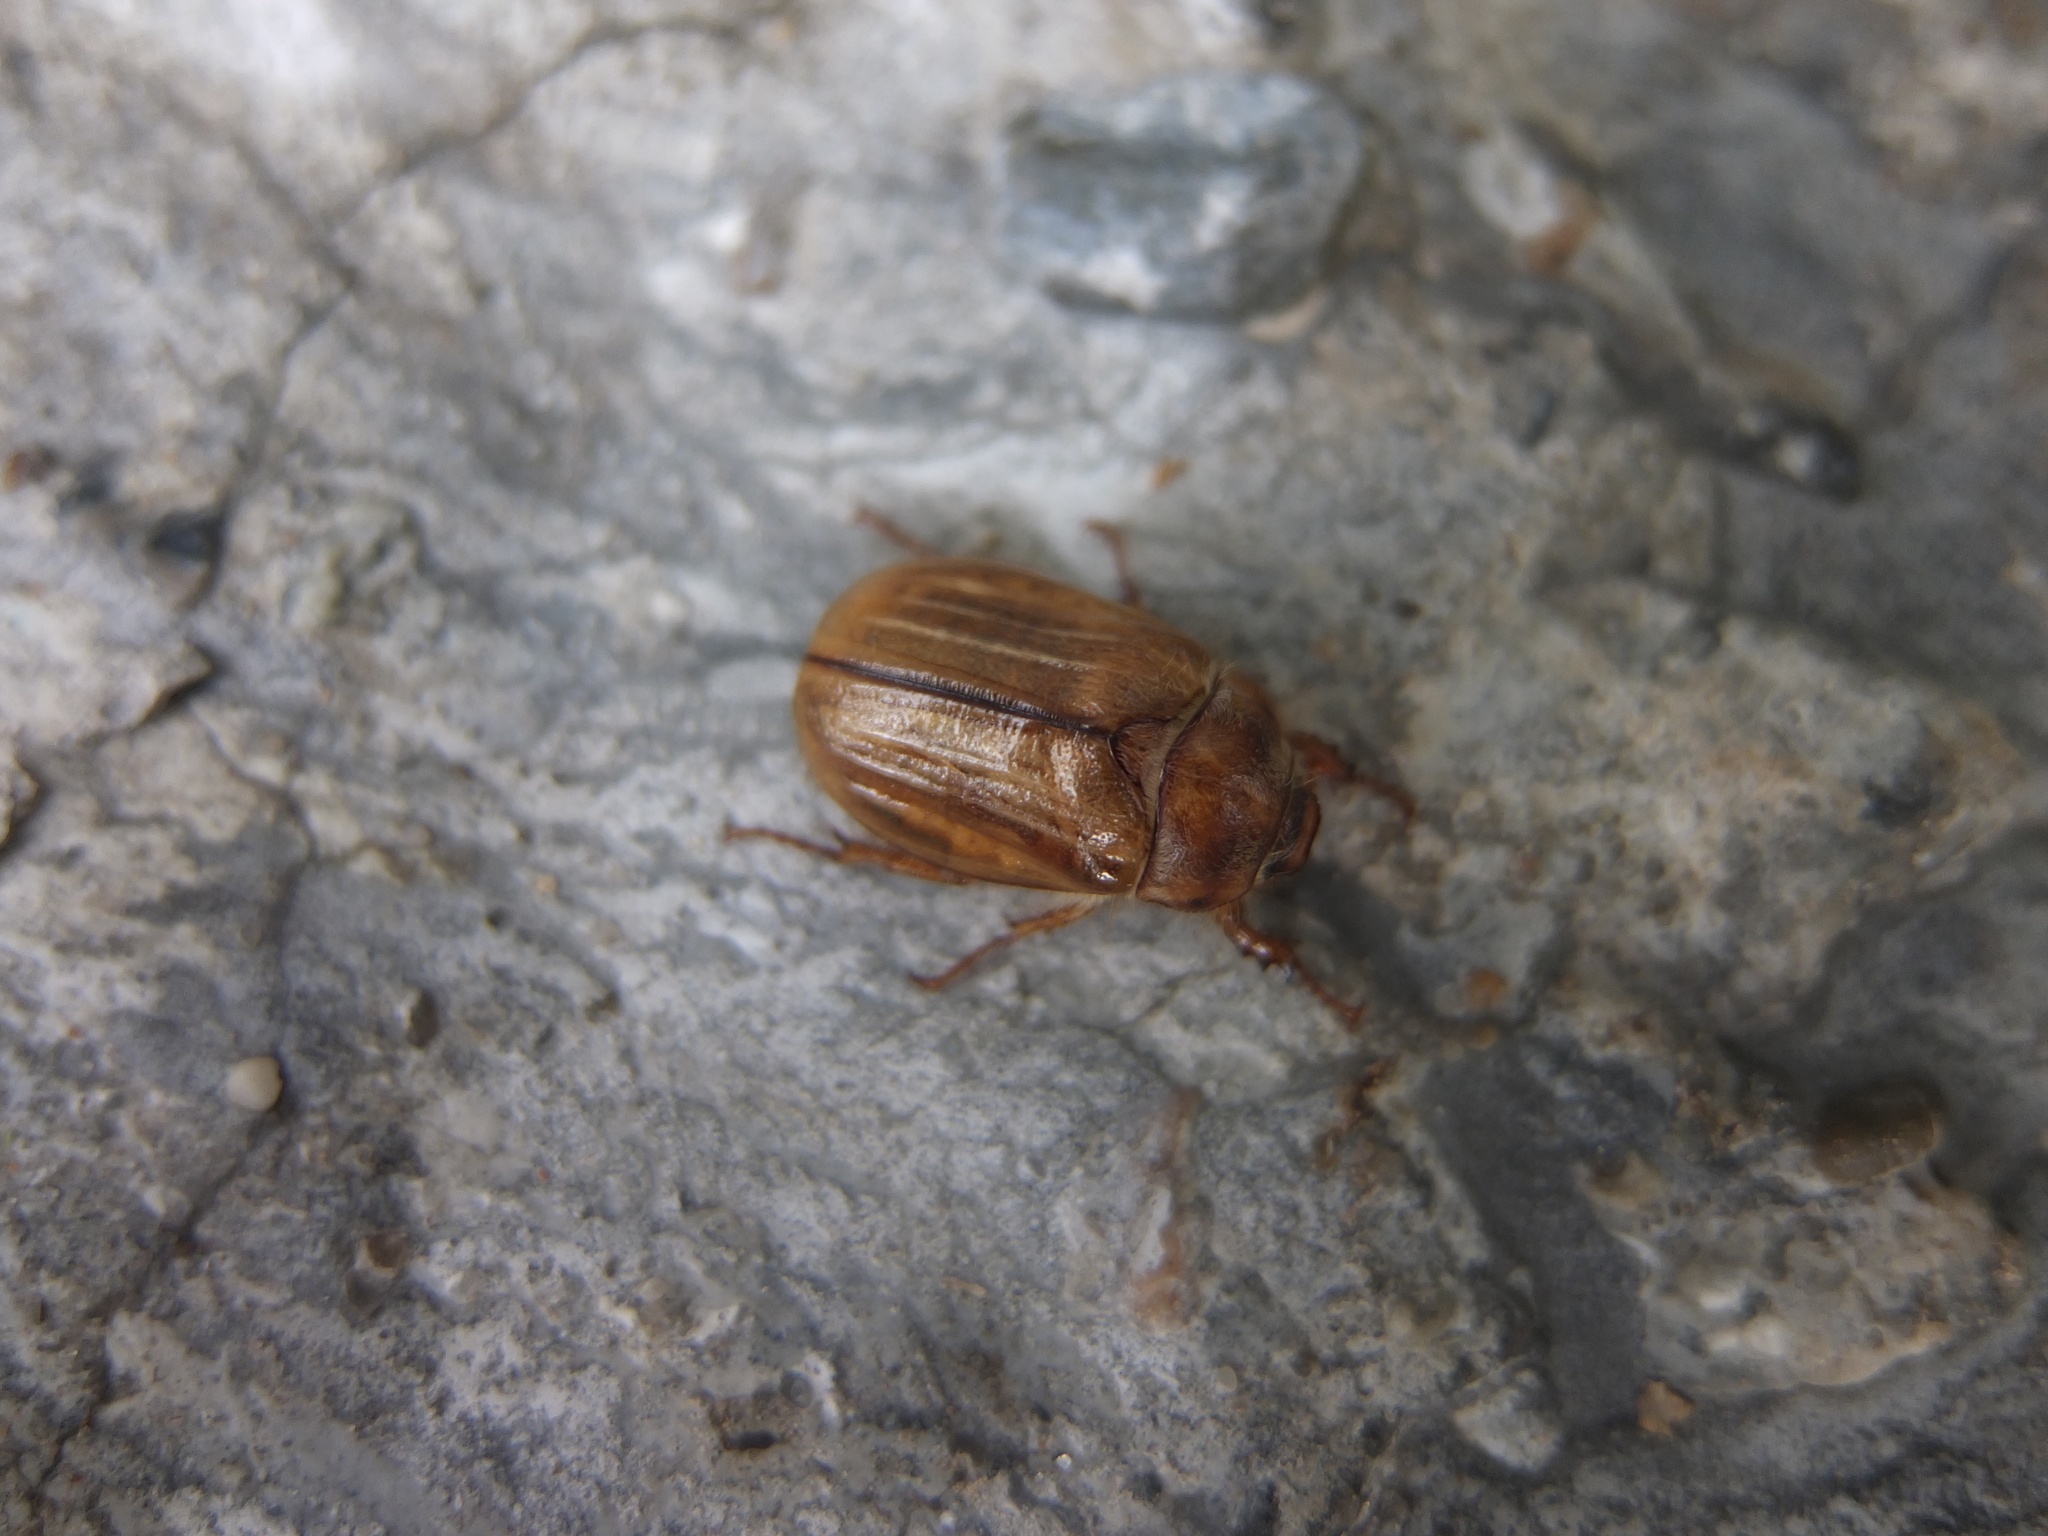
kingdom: Animalia
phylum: Arthropoda
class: Insecta
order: Coleoptera
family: Scarabaeidae
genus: Amphimallon
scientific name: Amphimallon solstitiale
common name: Summer chafer
